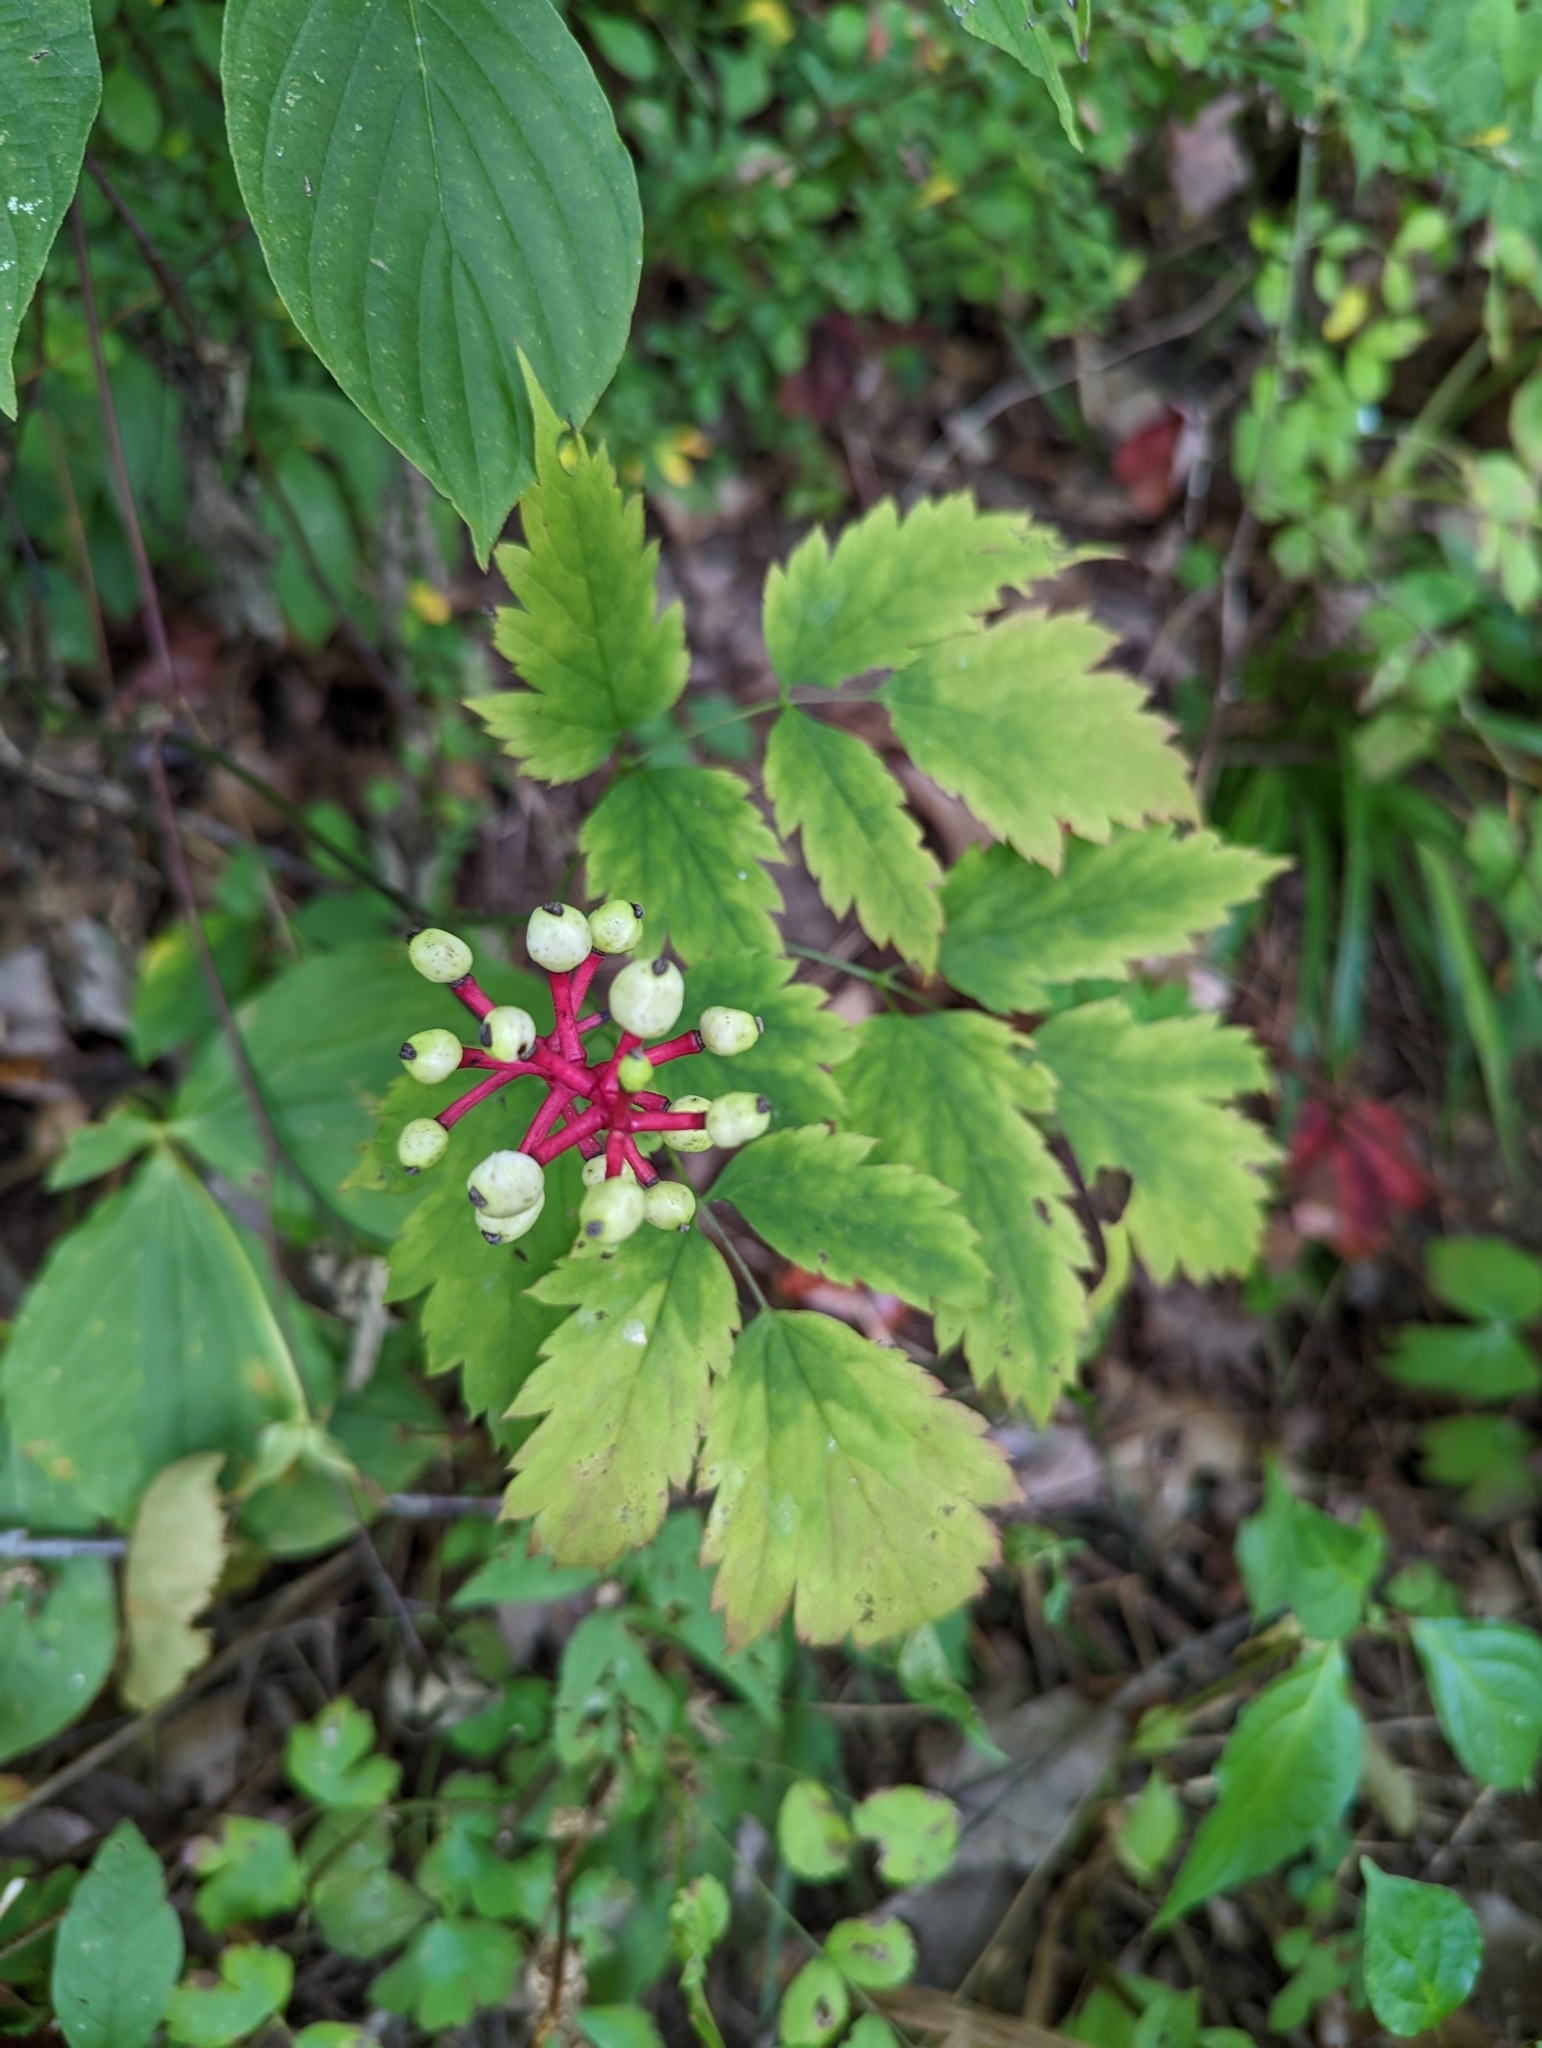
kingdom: Plantae
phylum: Tracheophyta
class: Magnoliopsida
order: Ranunculales
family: Ranunculaceae
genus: Actaea
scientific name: Actaea pachypoda
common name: Doll's-eyes
